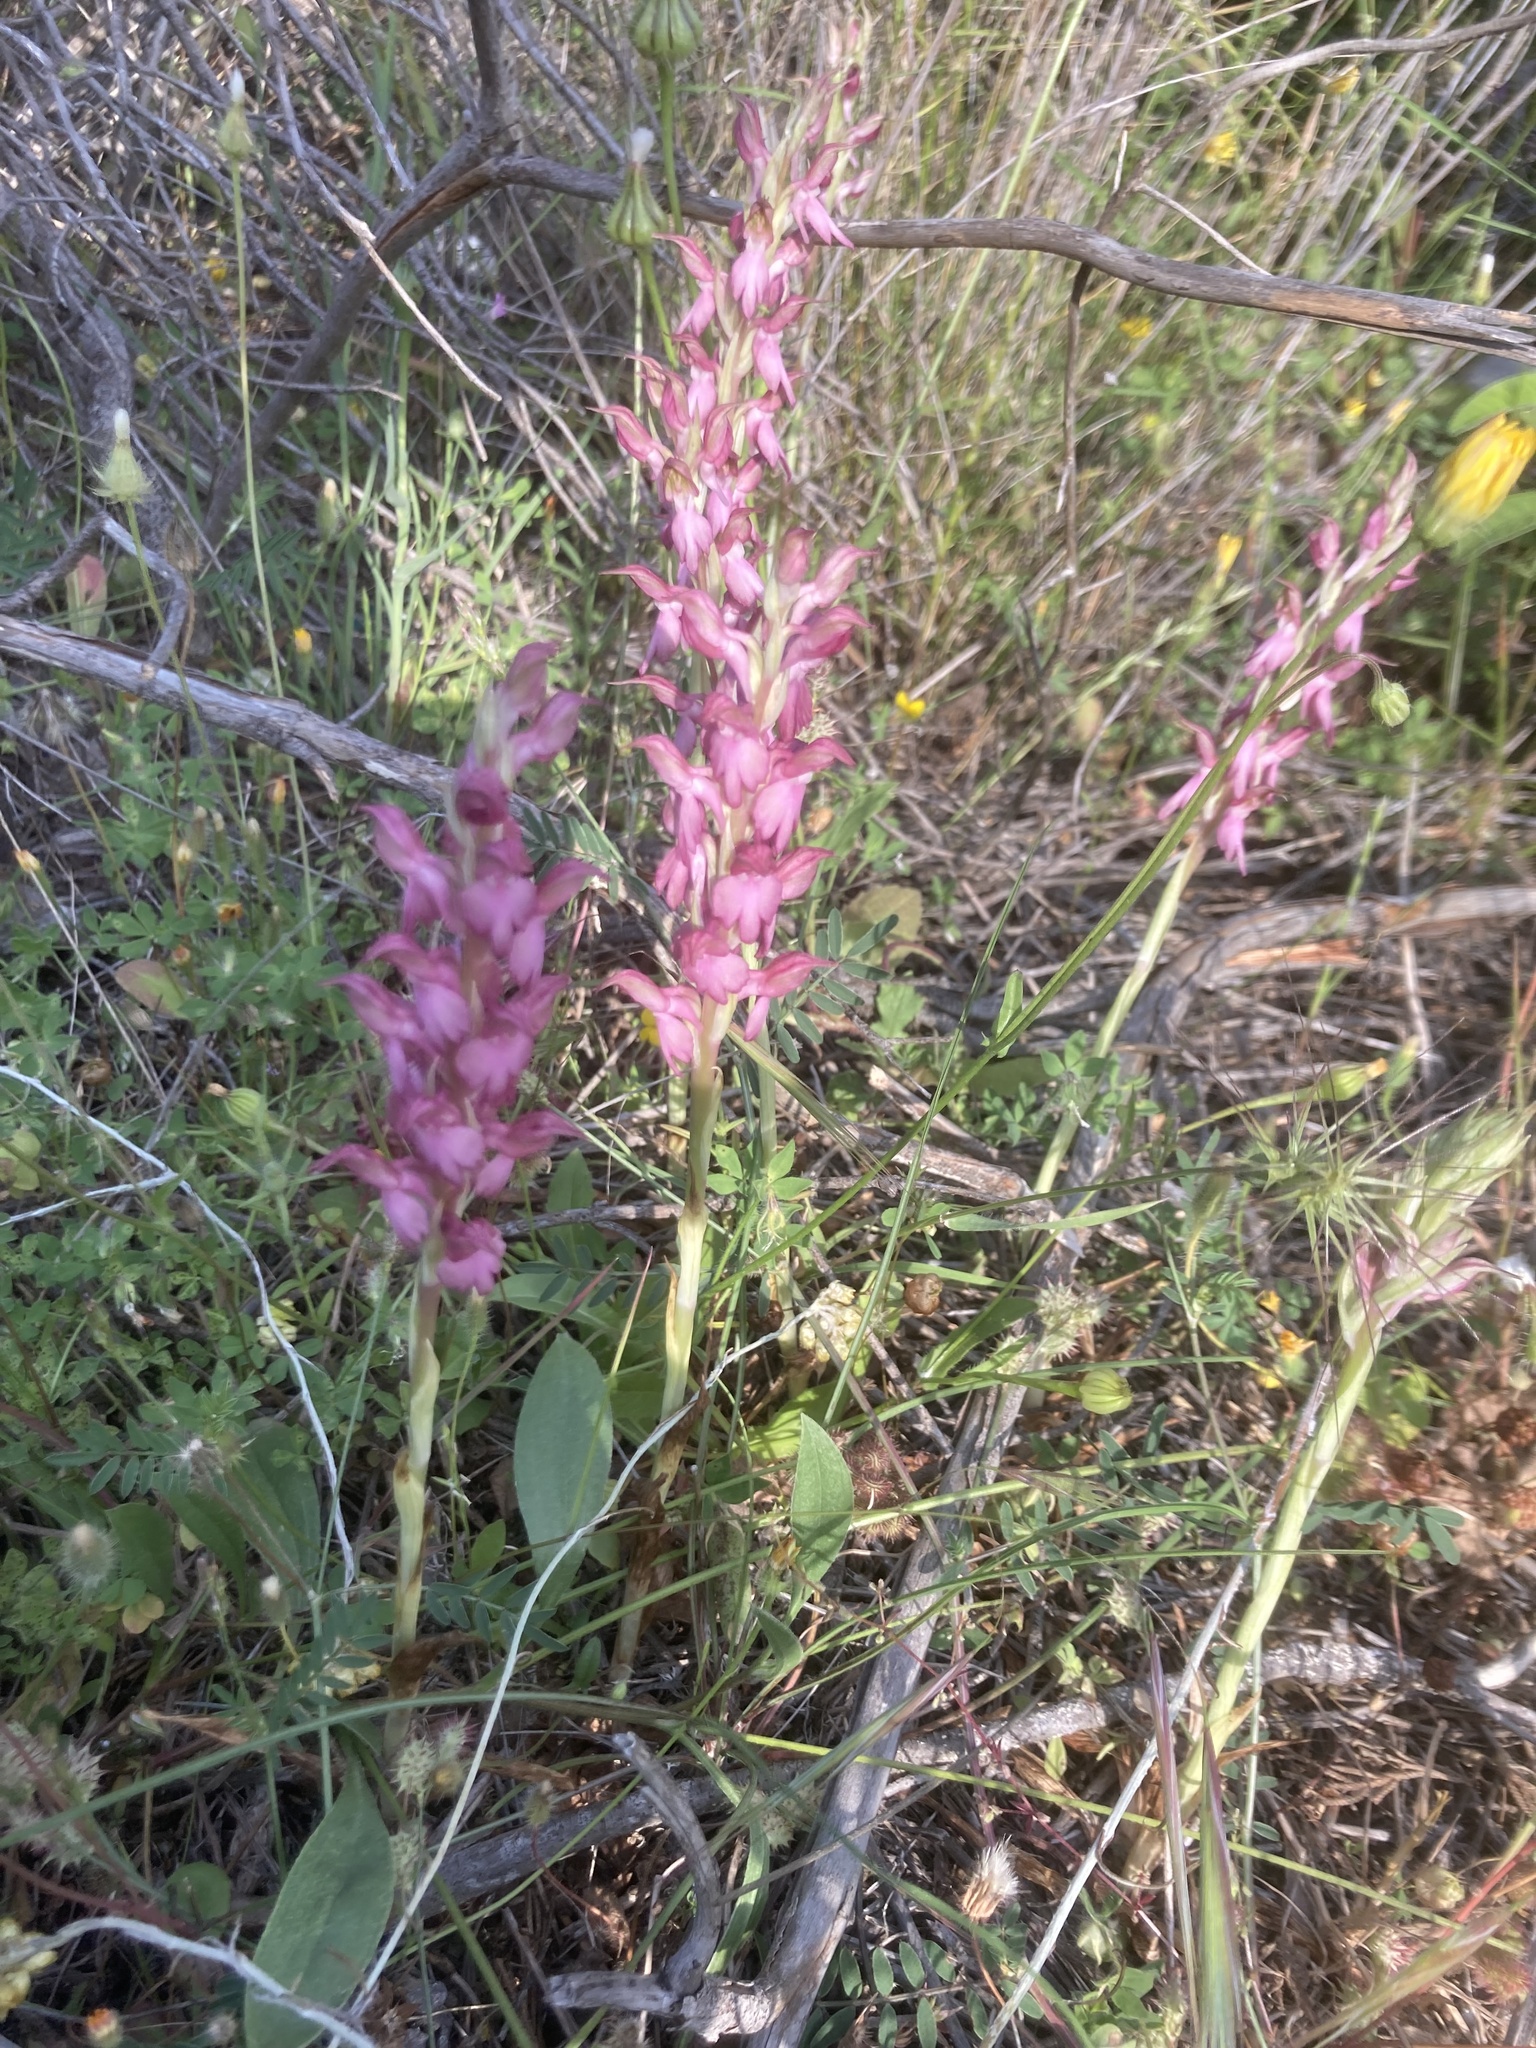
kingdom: Plantae
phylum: Tracheophyta
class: Liliopsida
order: Asparagales
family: Orchidaceae
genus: Anacamptis
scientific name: Anacamptis sancta
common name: Holy orchid
